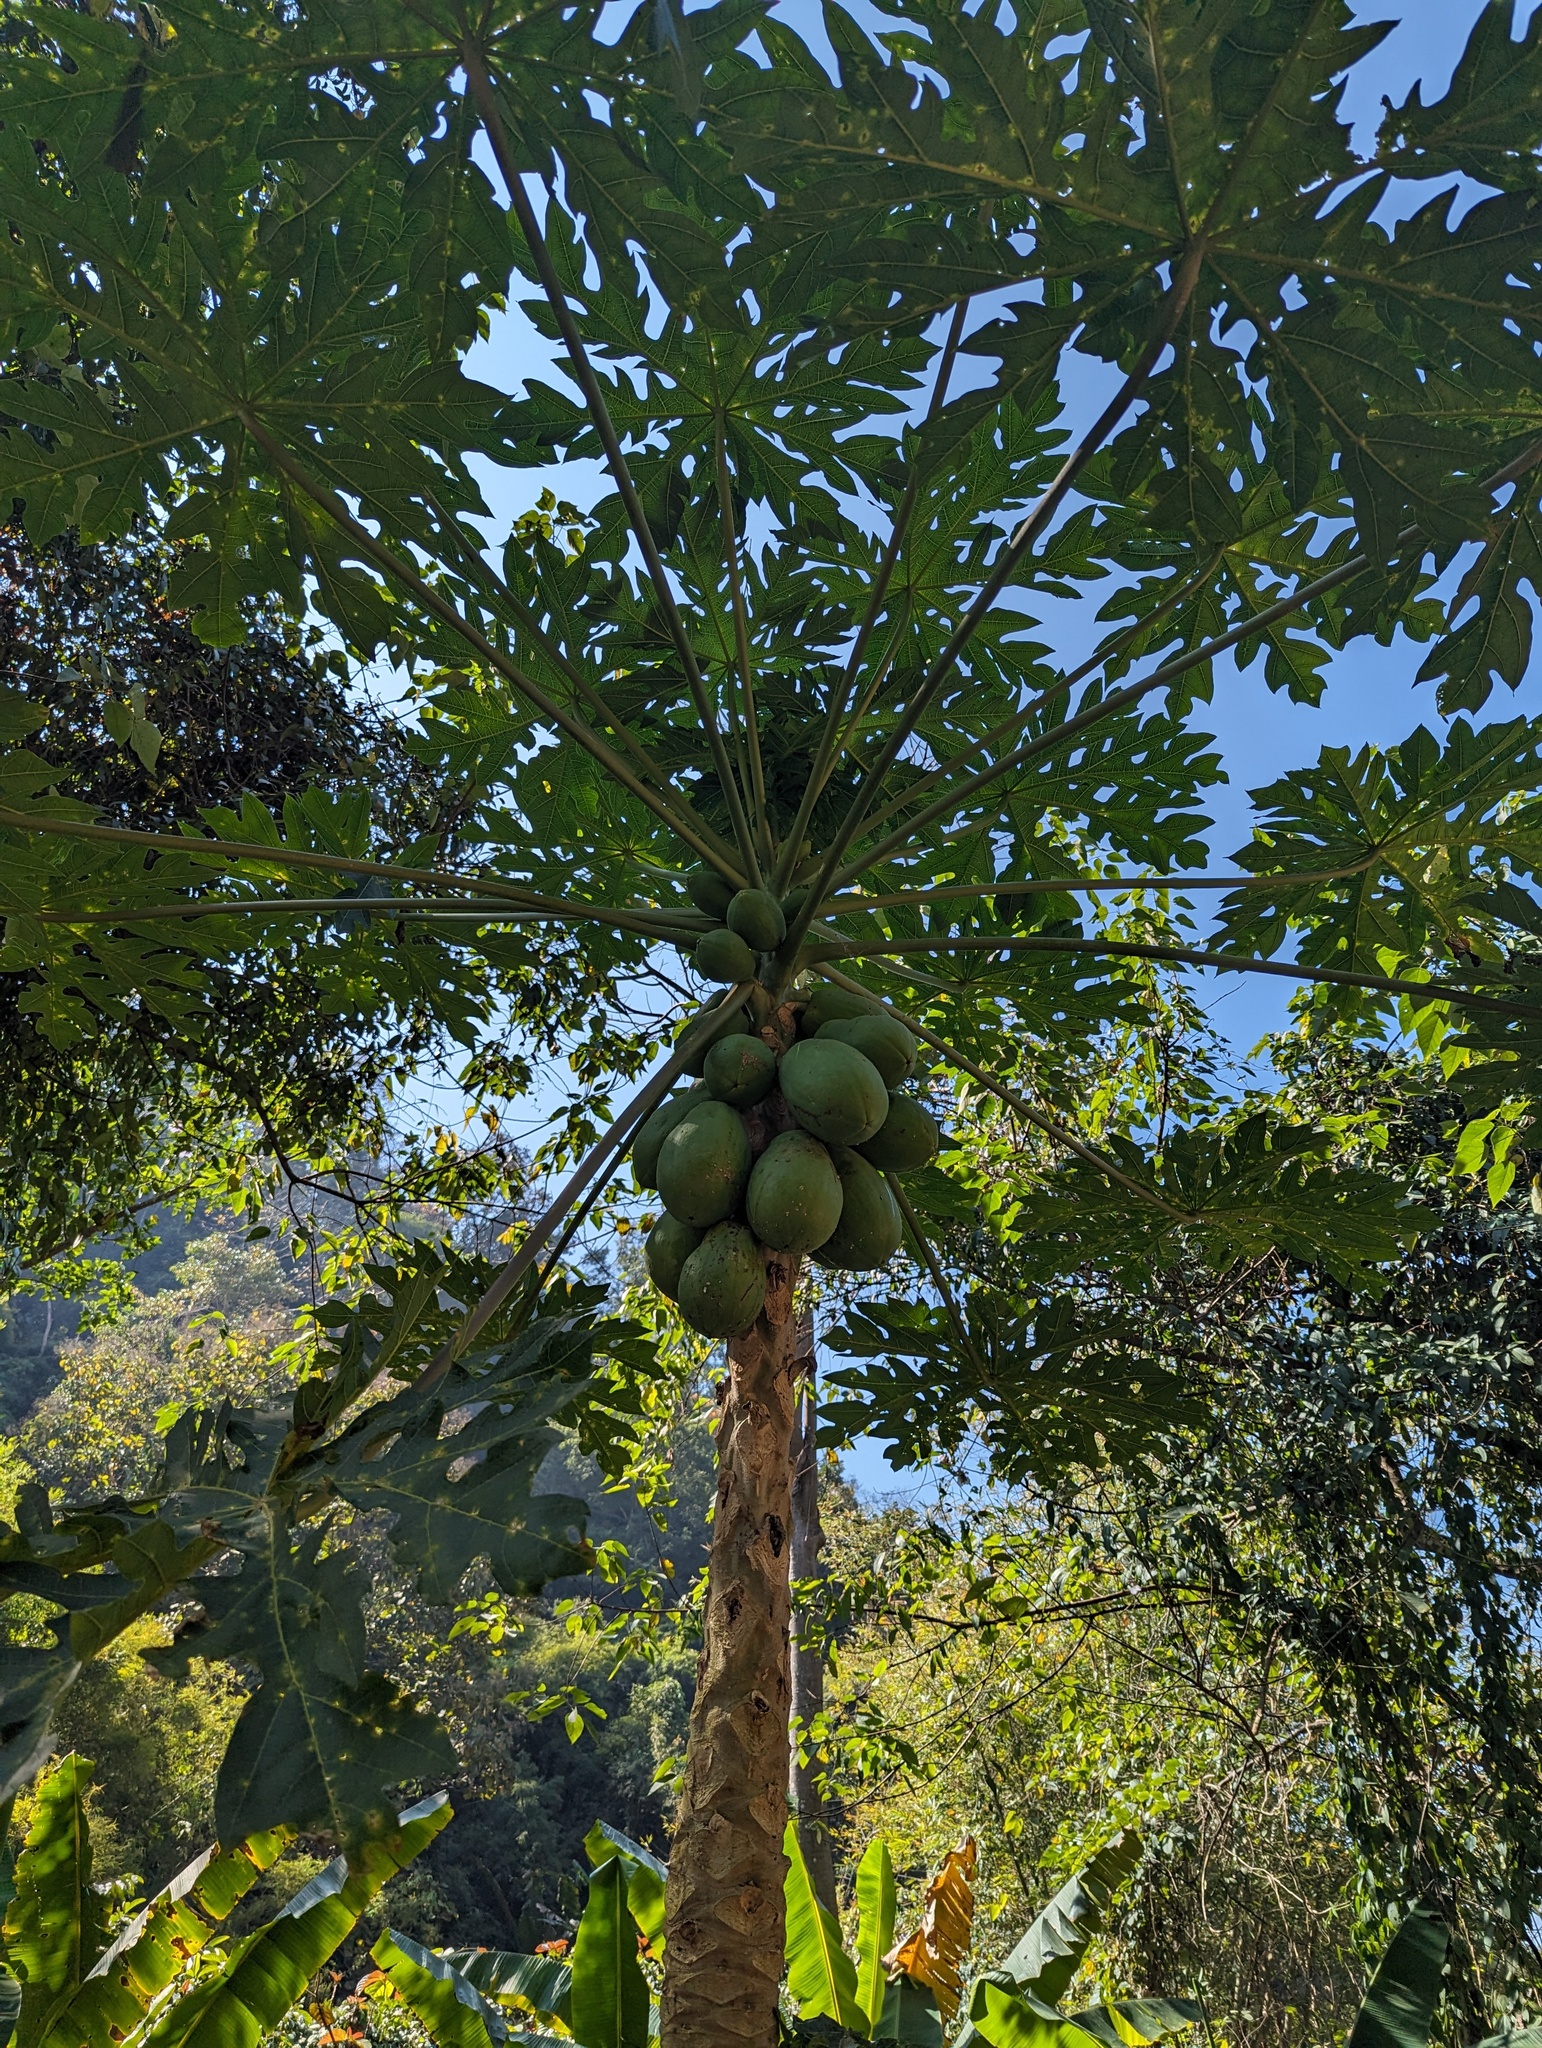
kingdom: Plantae
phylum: Tracheophyta
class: Magnoliopsida
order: Brassicales
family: Caricaceae
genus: Carica
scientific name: Carica papaya
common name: Papaya
